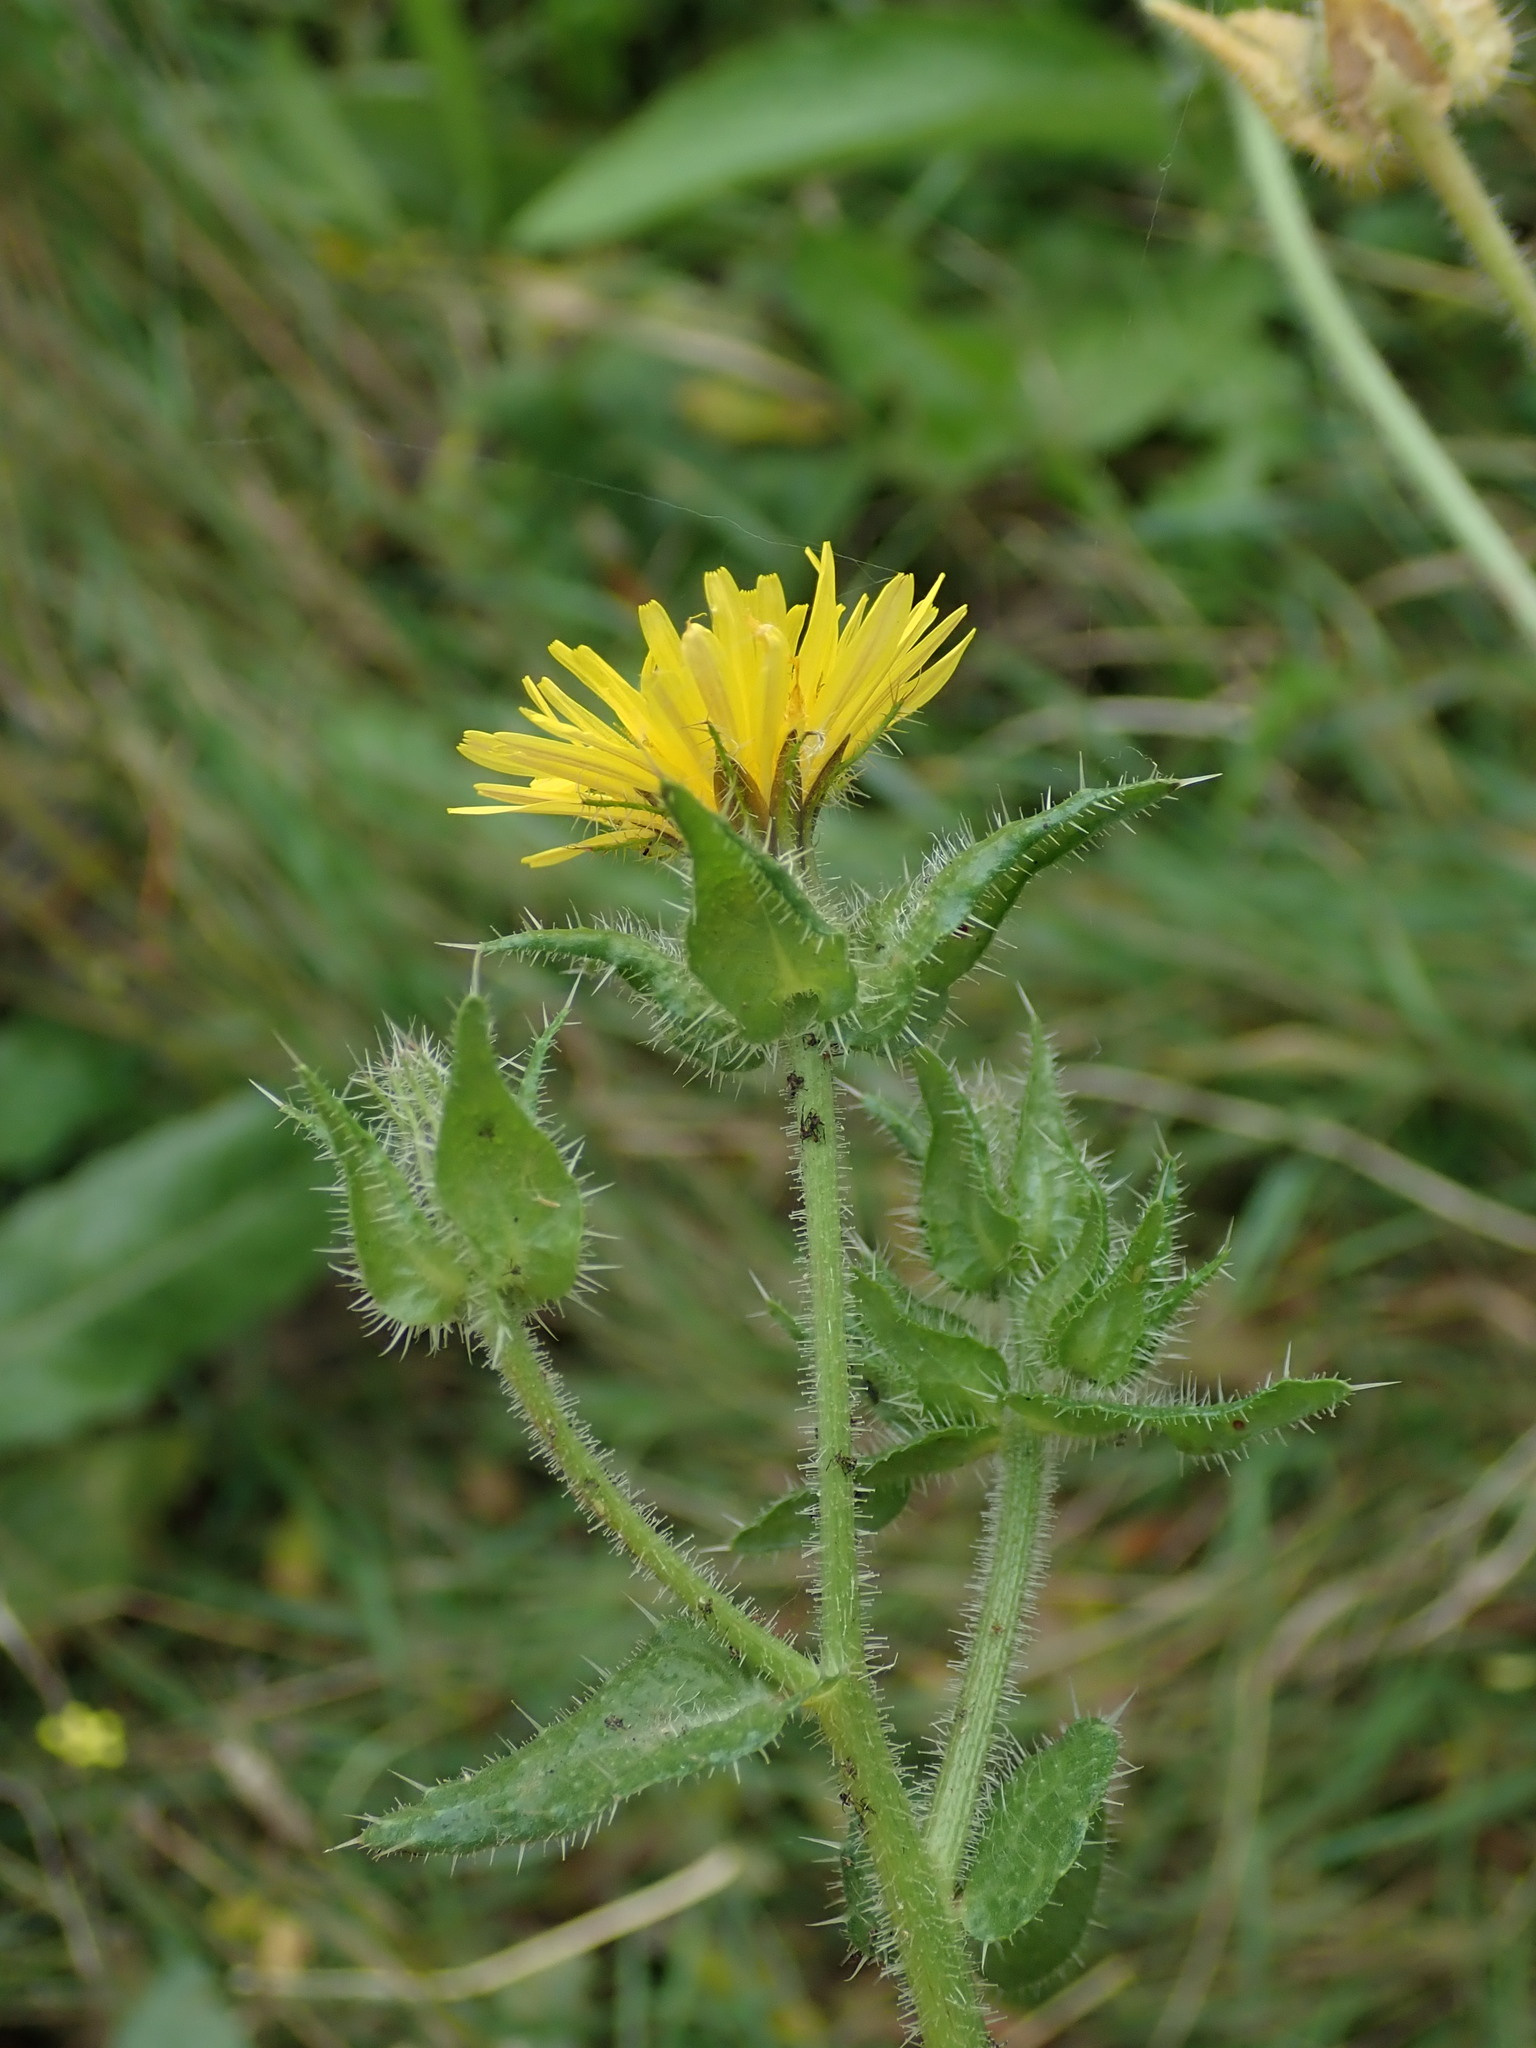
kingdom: Plantae
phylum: Tracheophyta
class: Magnoliopsida
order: Asterales
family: Asteraceae
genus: Helminthotheca
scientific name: Helminthotheca echioides
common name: Ox-tongue
